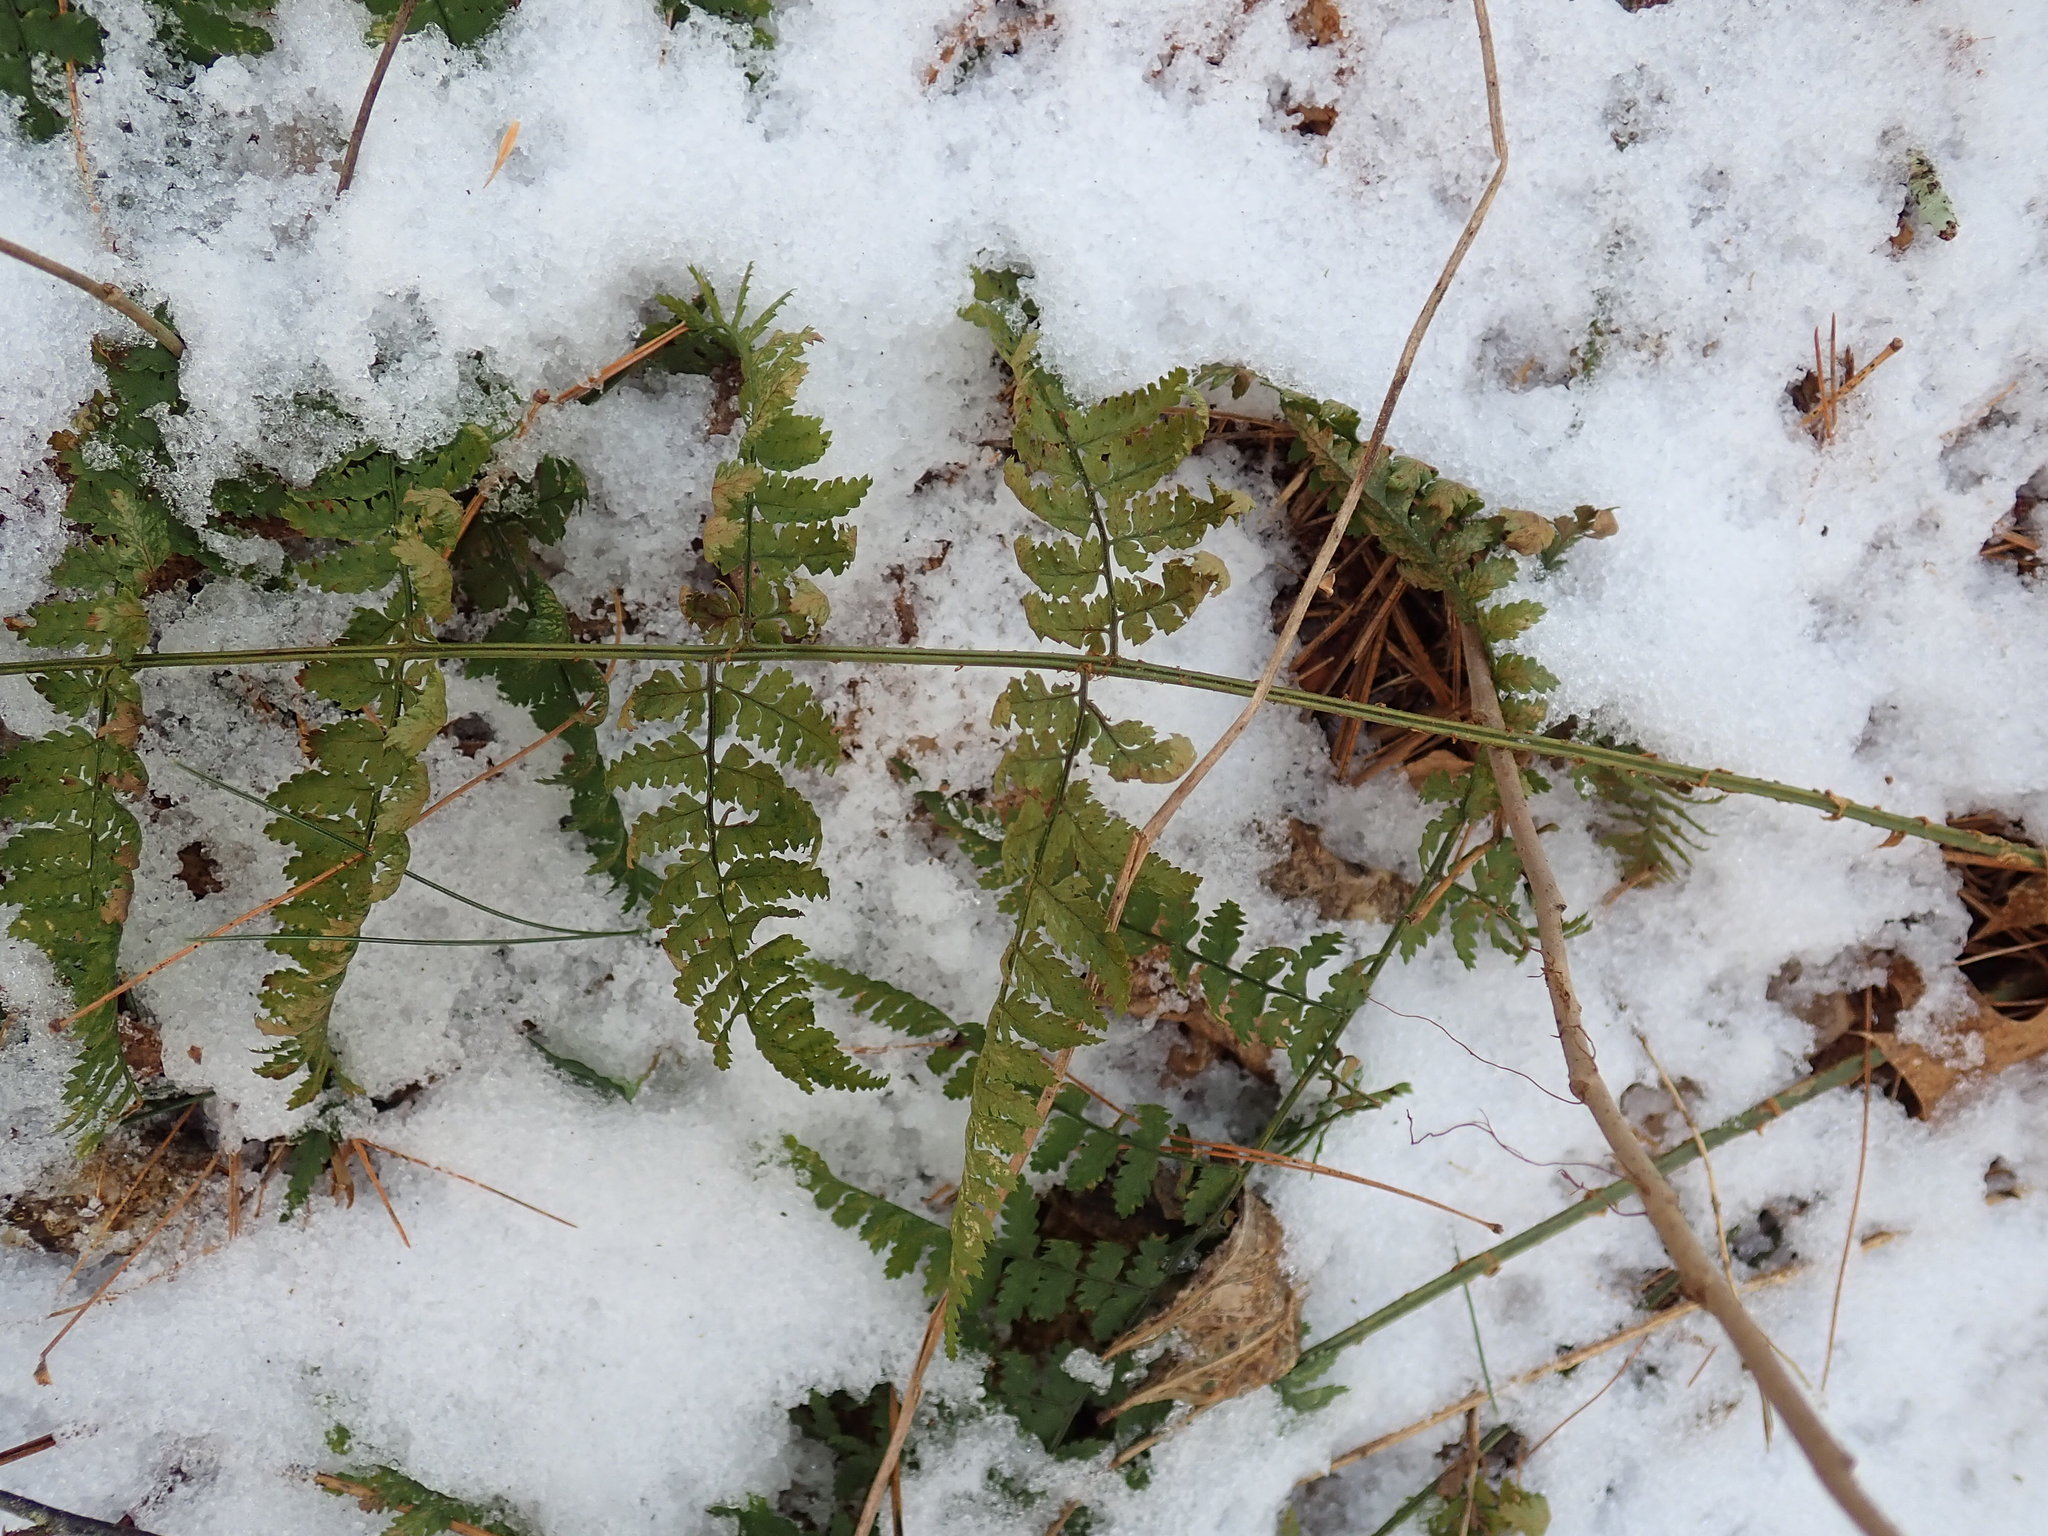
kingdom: Plantae
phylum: Tracheophyta
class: Polypodiopsida
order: Polypodiales
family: Dryopteridaceae
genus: Dryopteris
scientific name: Dryopteris intermedia
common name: Evergreen wood fern
